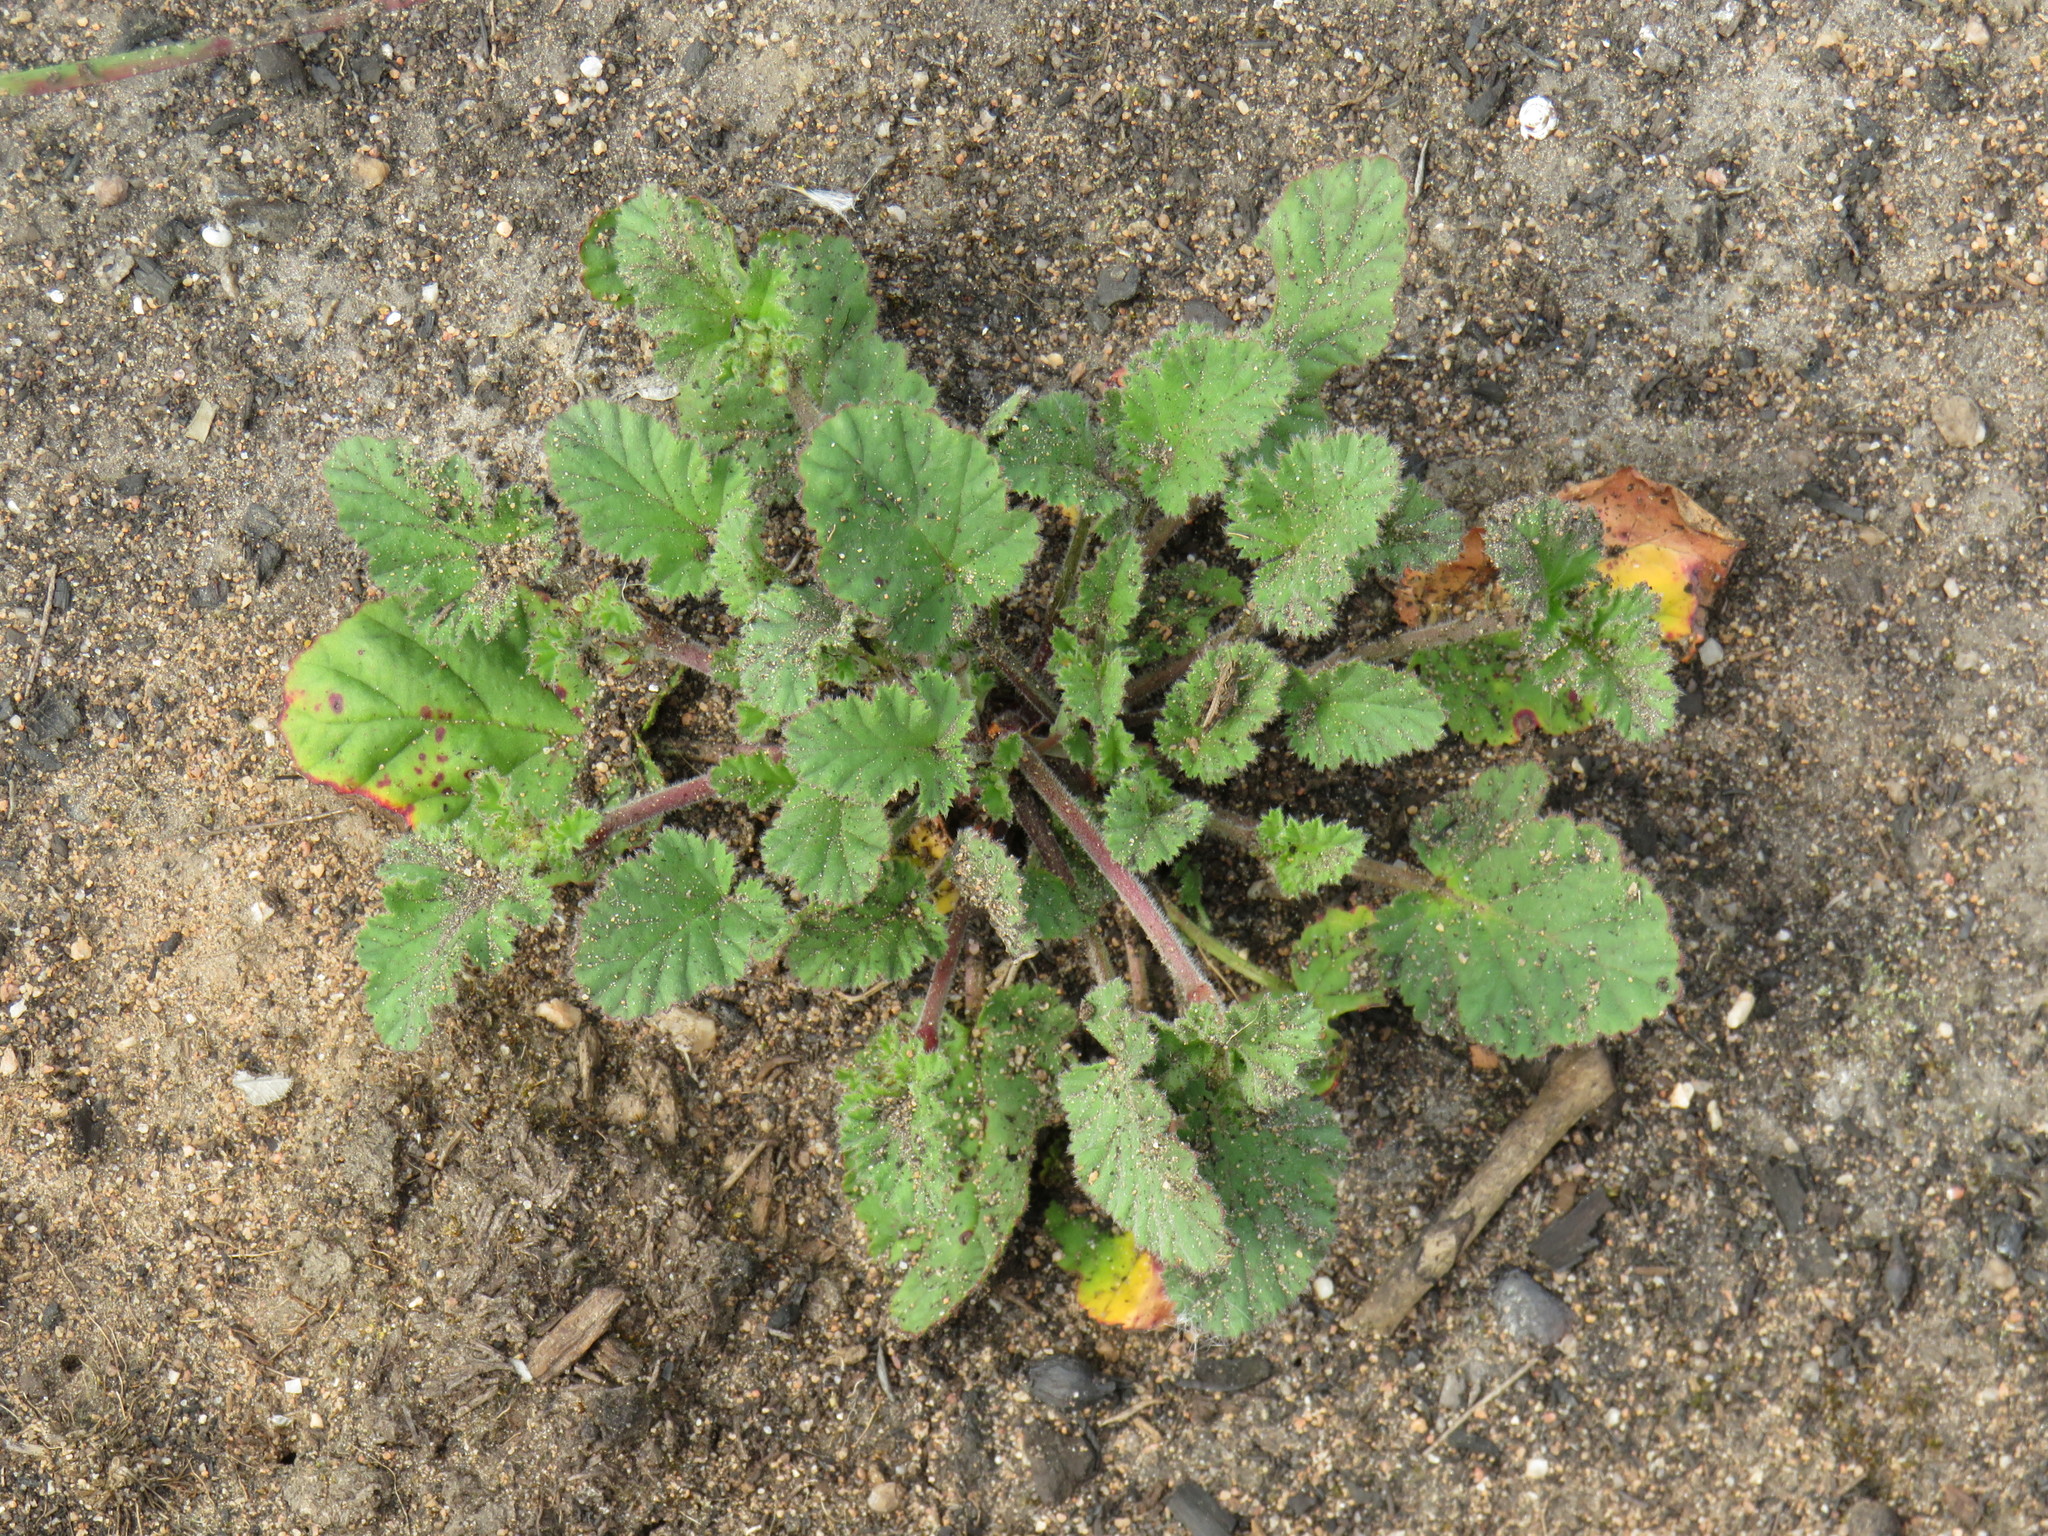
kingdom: Plantae
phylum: Tracheophyta
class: Magnoliopsida
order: Geraniales
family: Geraniaceae
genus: Pelargonium
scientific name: Pelargonium althaeoides
